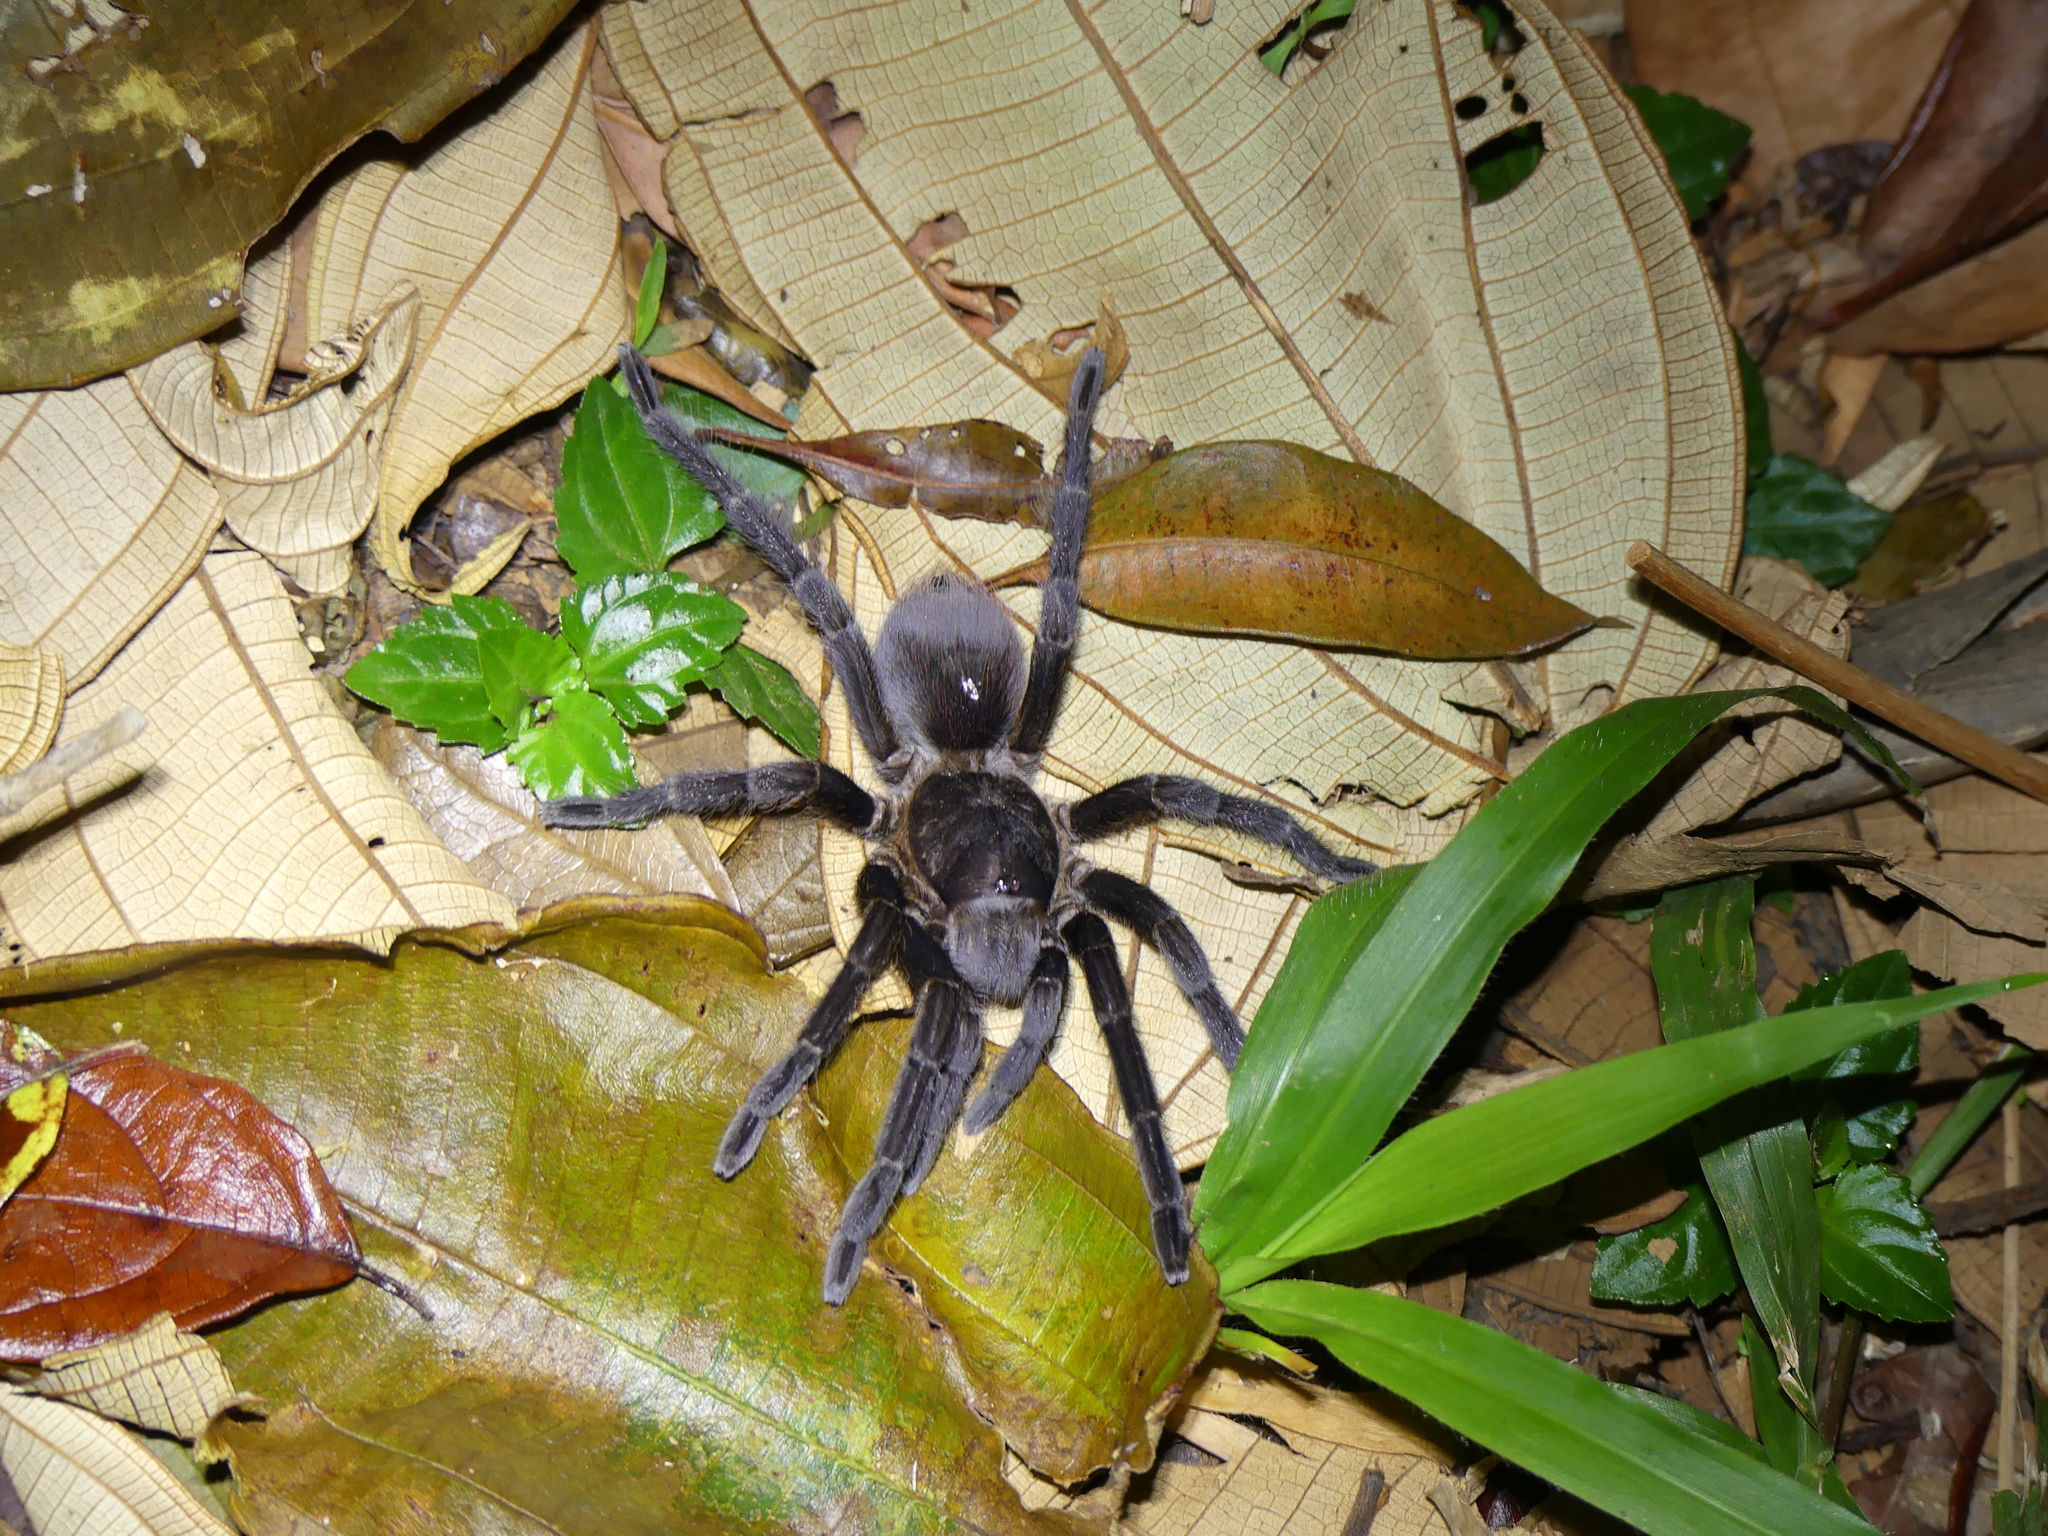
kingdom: Animalia
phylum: Arthropoda
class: Arachnida
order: Araneae
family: Theraphosidae
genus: Phormictopus
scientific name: Phormictopus
